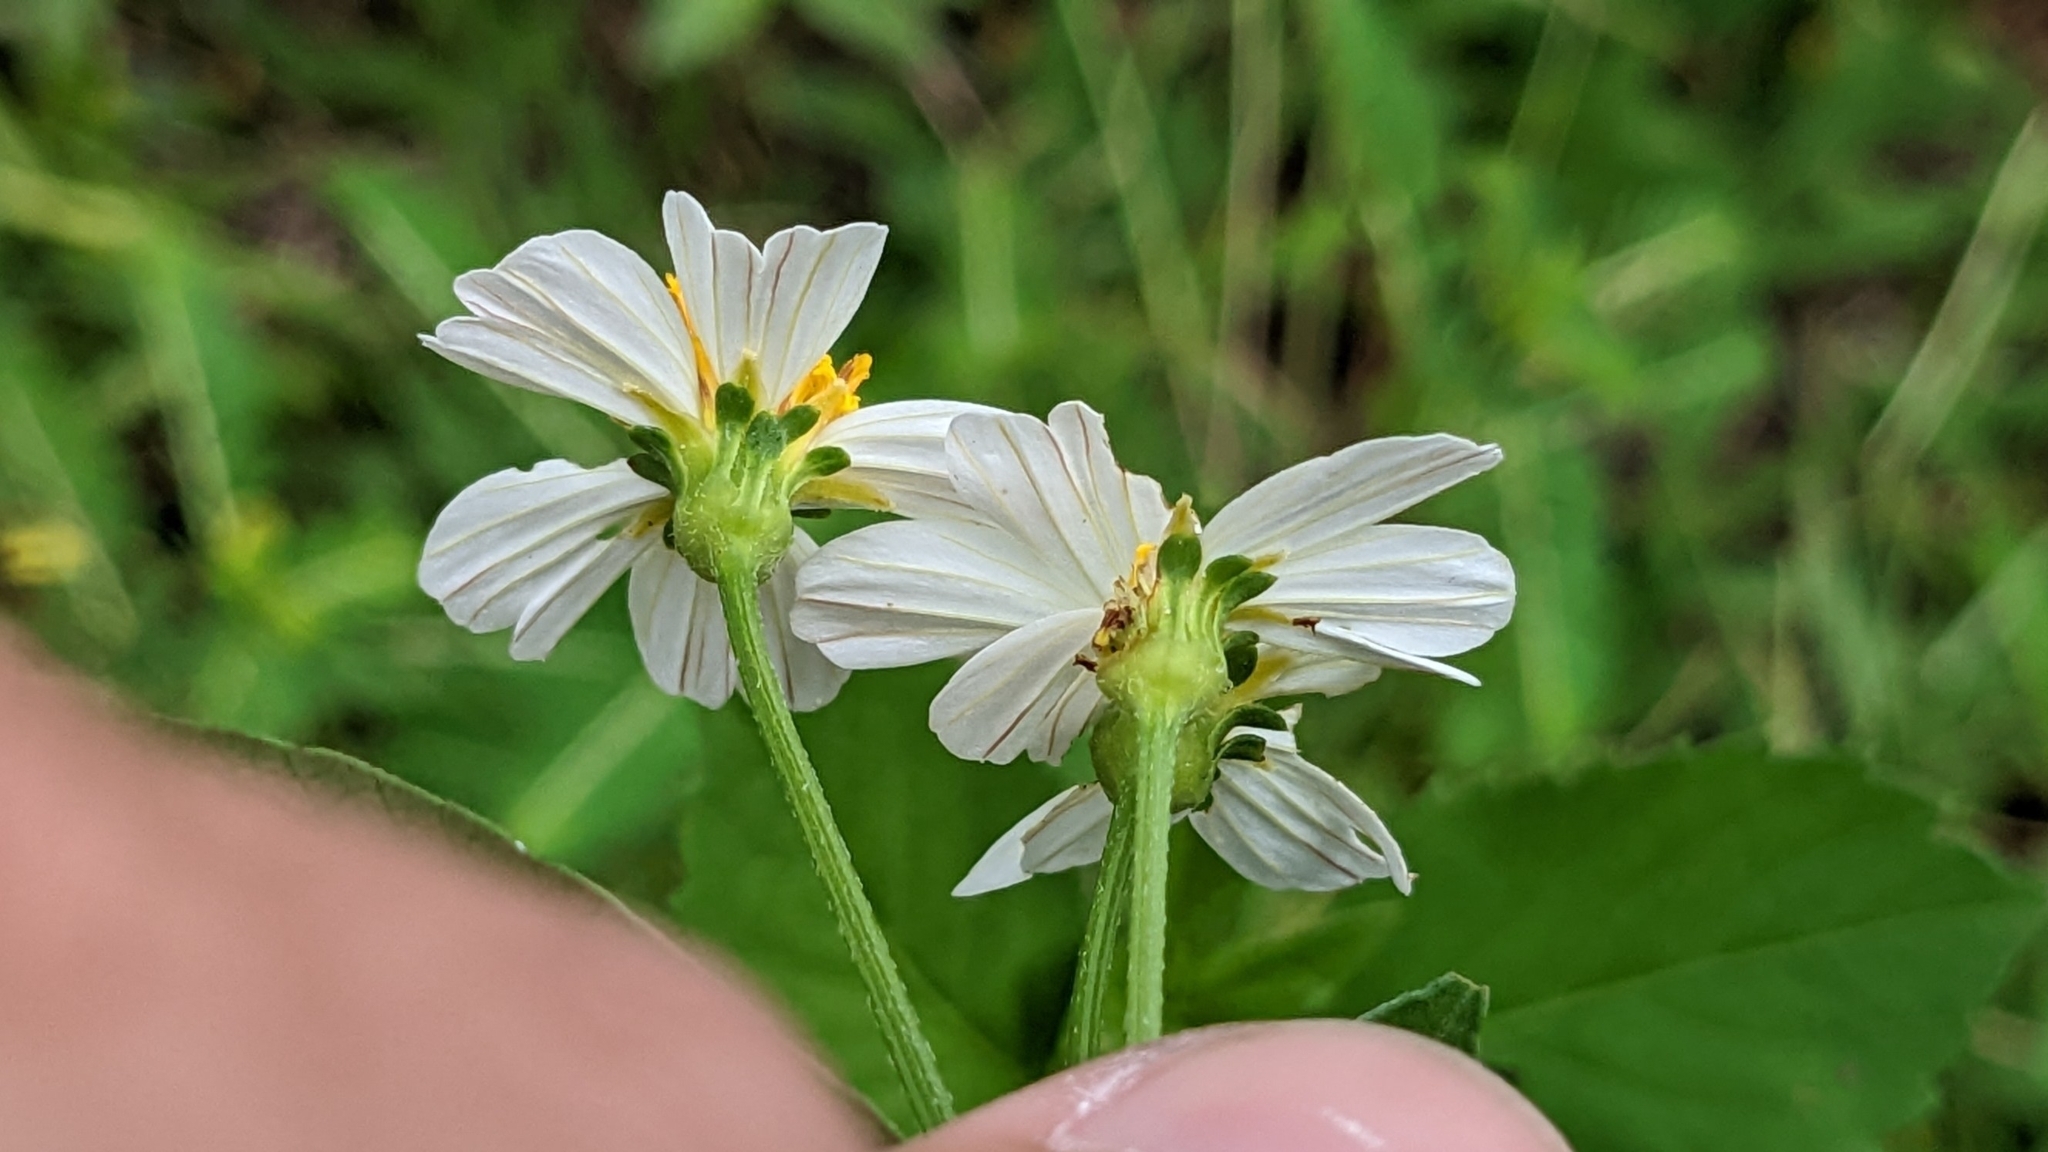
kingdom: Plantae
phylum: Tracheophyta
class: Magnoliopsida
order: Asterales
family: Asteraceae
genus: Bidens
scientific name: Bidens alba
